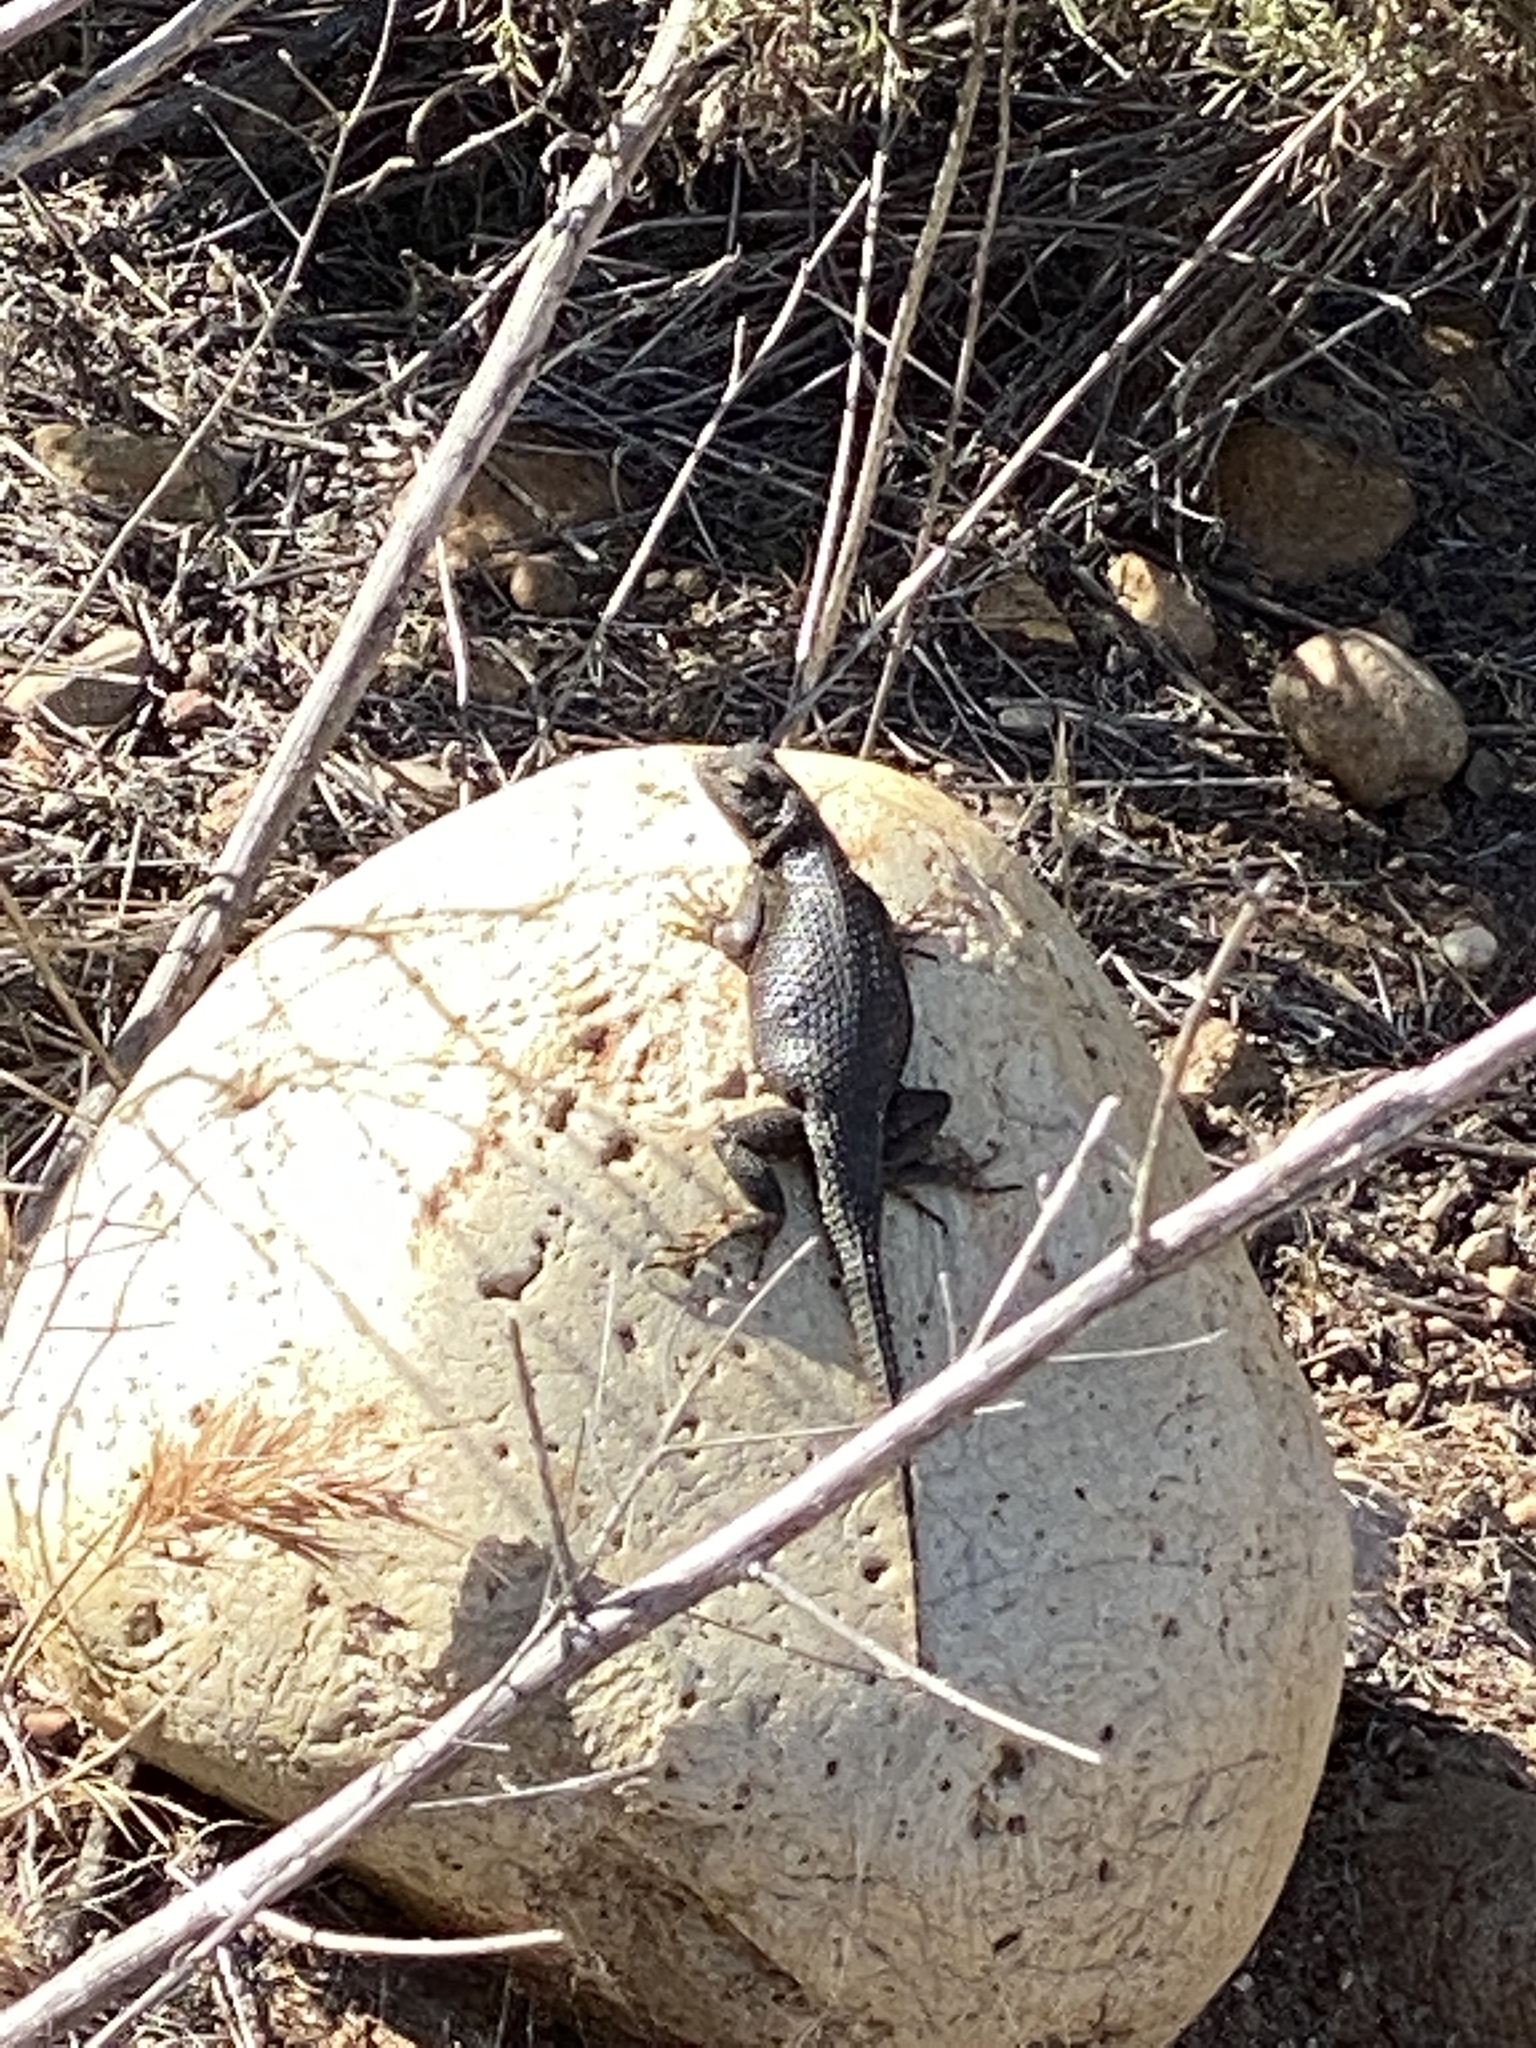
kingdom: Animalia
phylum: Chordata
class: Squamata
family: Phrynosomatidae
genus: Sceloporus
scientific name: Sceloporus occidentalis
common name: Western fence lizard
